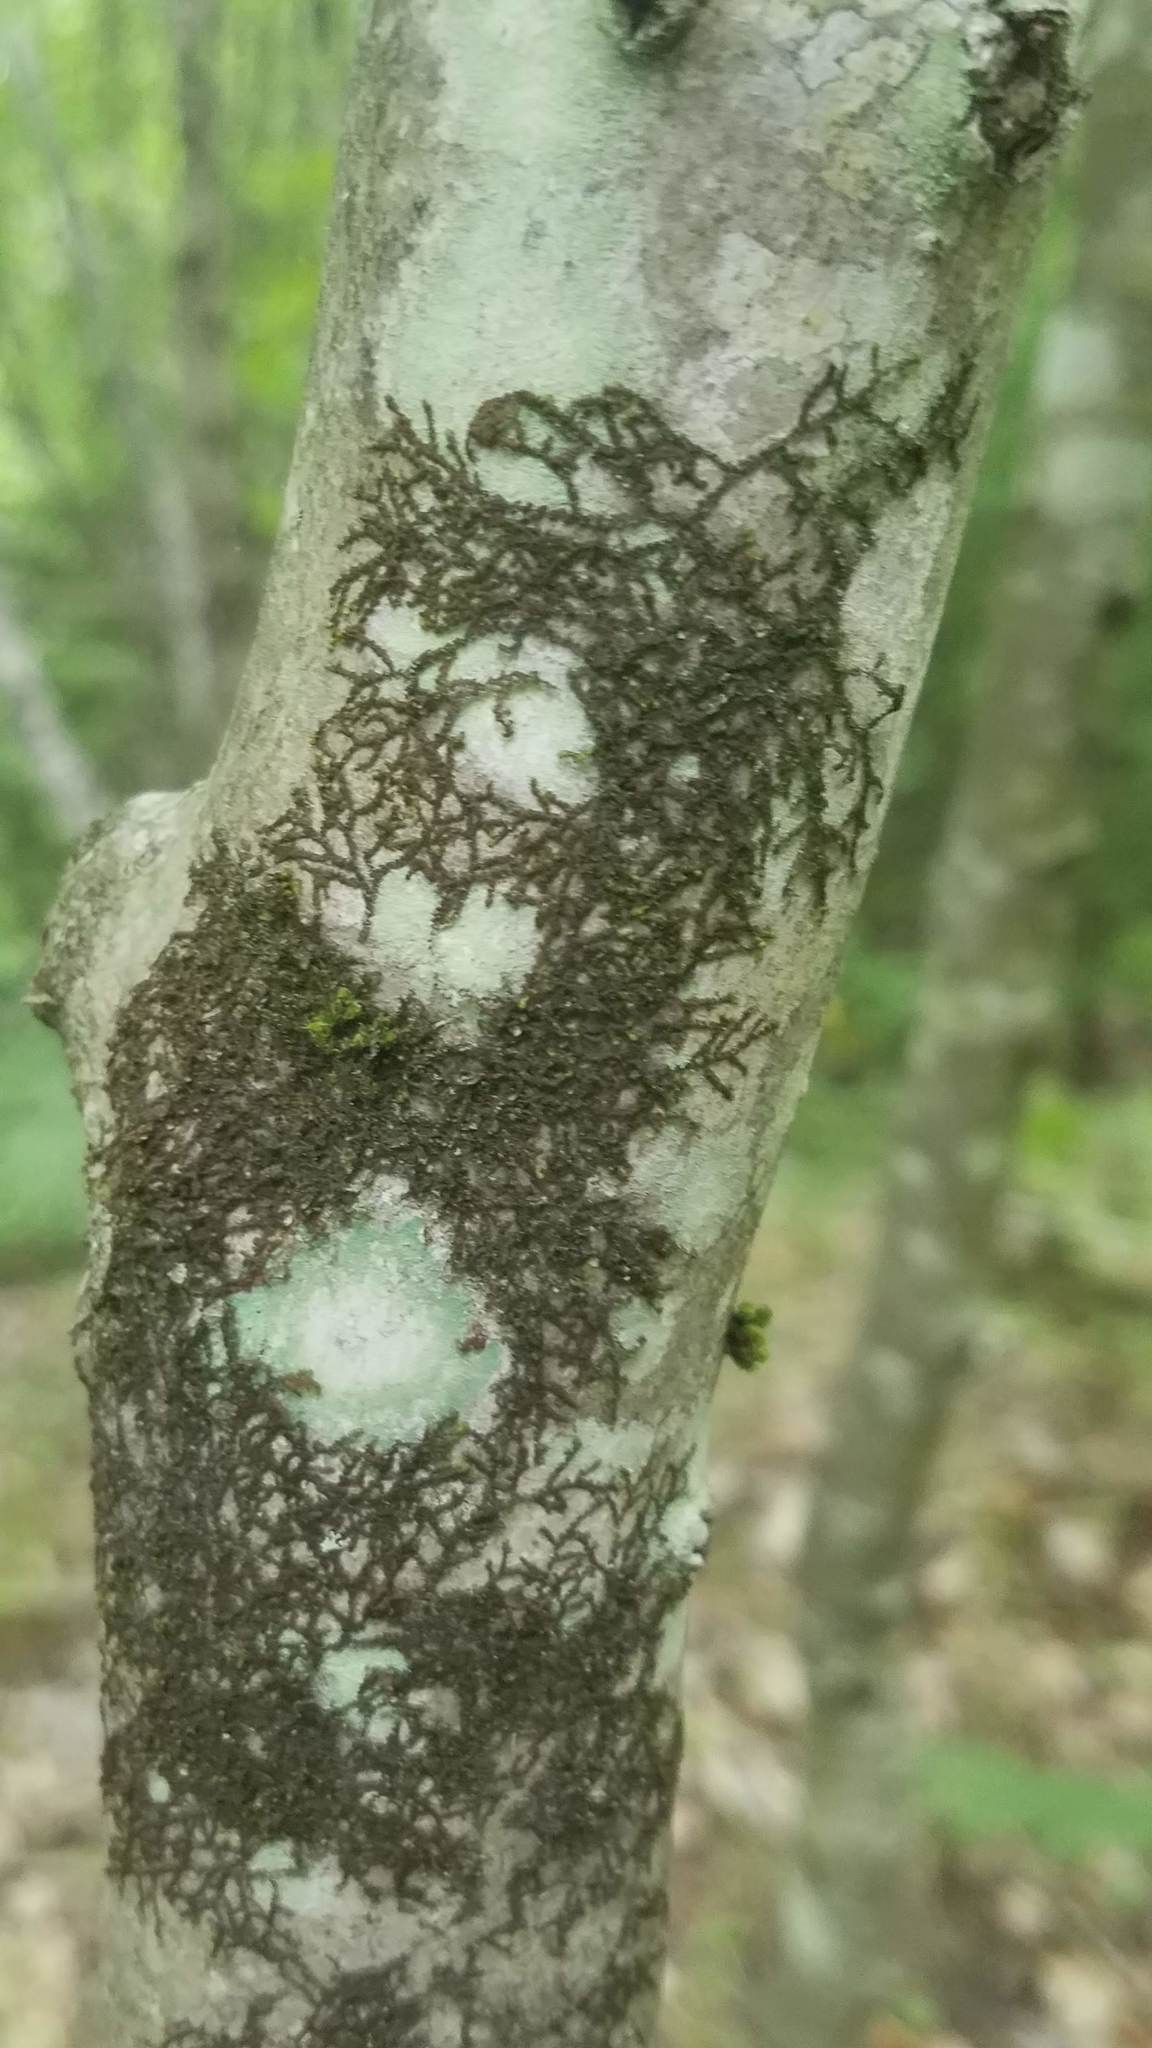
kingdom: Plantae
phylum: Marchantiophyta
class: Jungermanniopsida
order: Porellales
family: Frullaniaceae
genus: Frullania
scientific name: Frullania eboracensis
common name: New york scalewort
